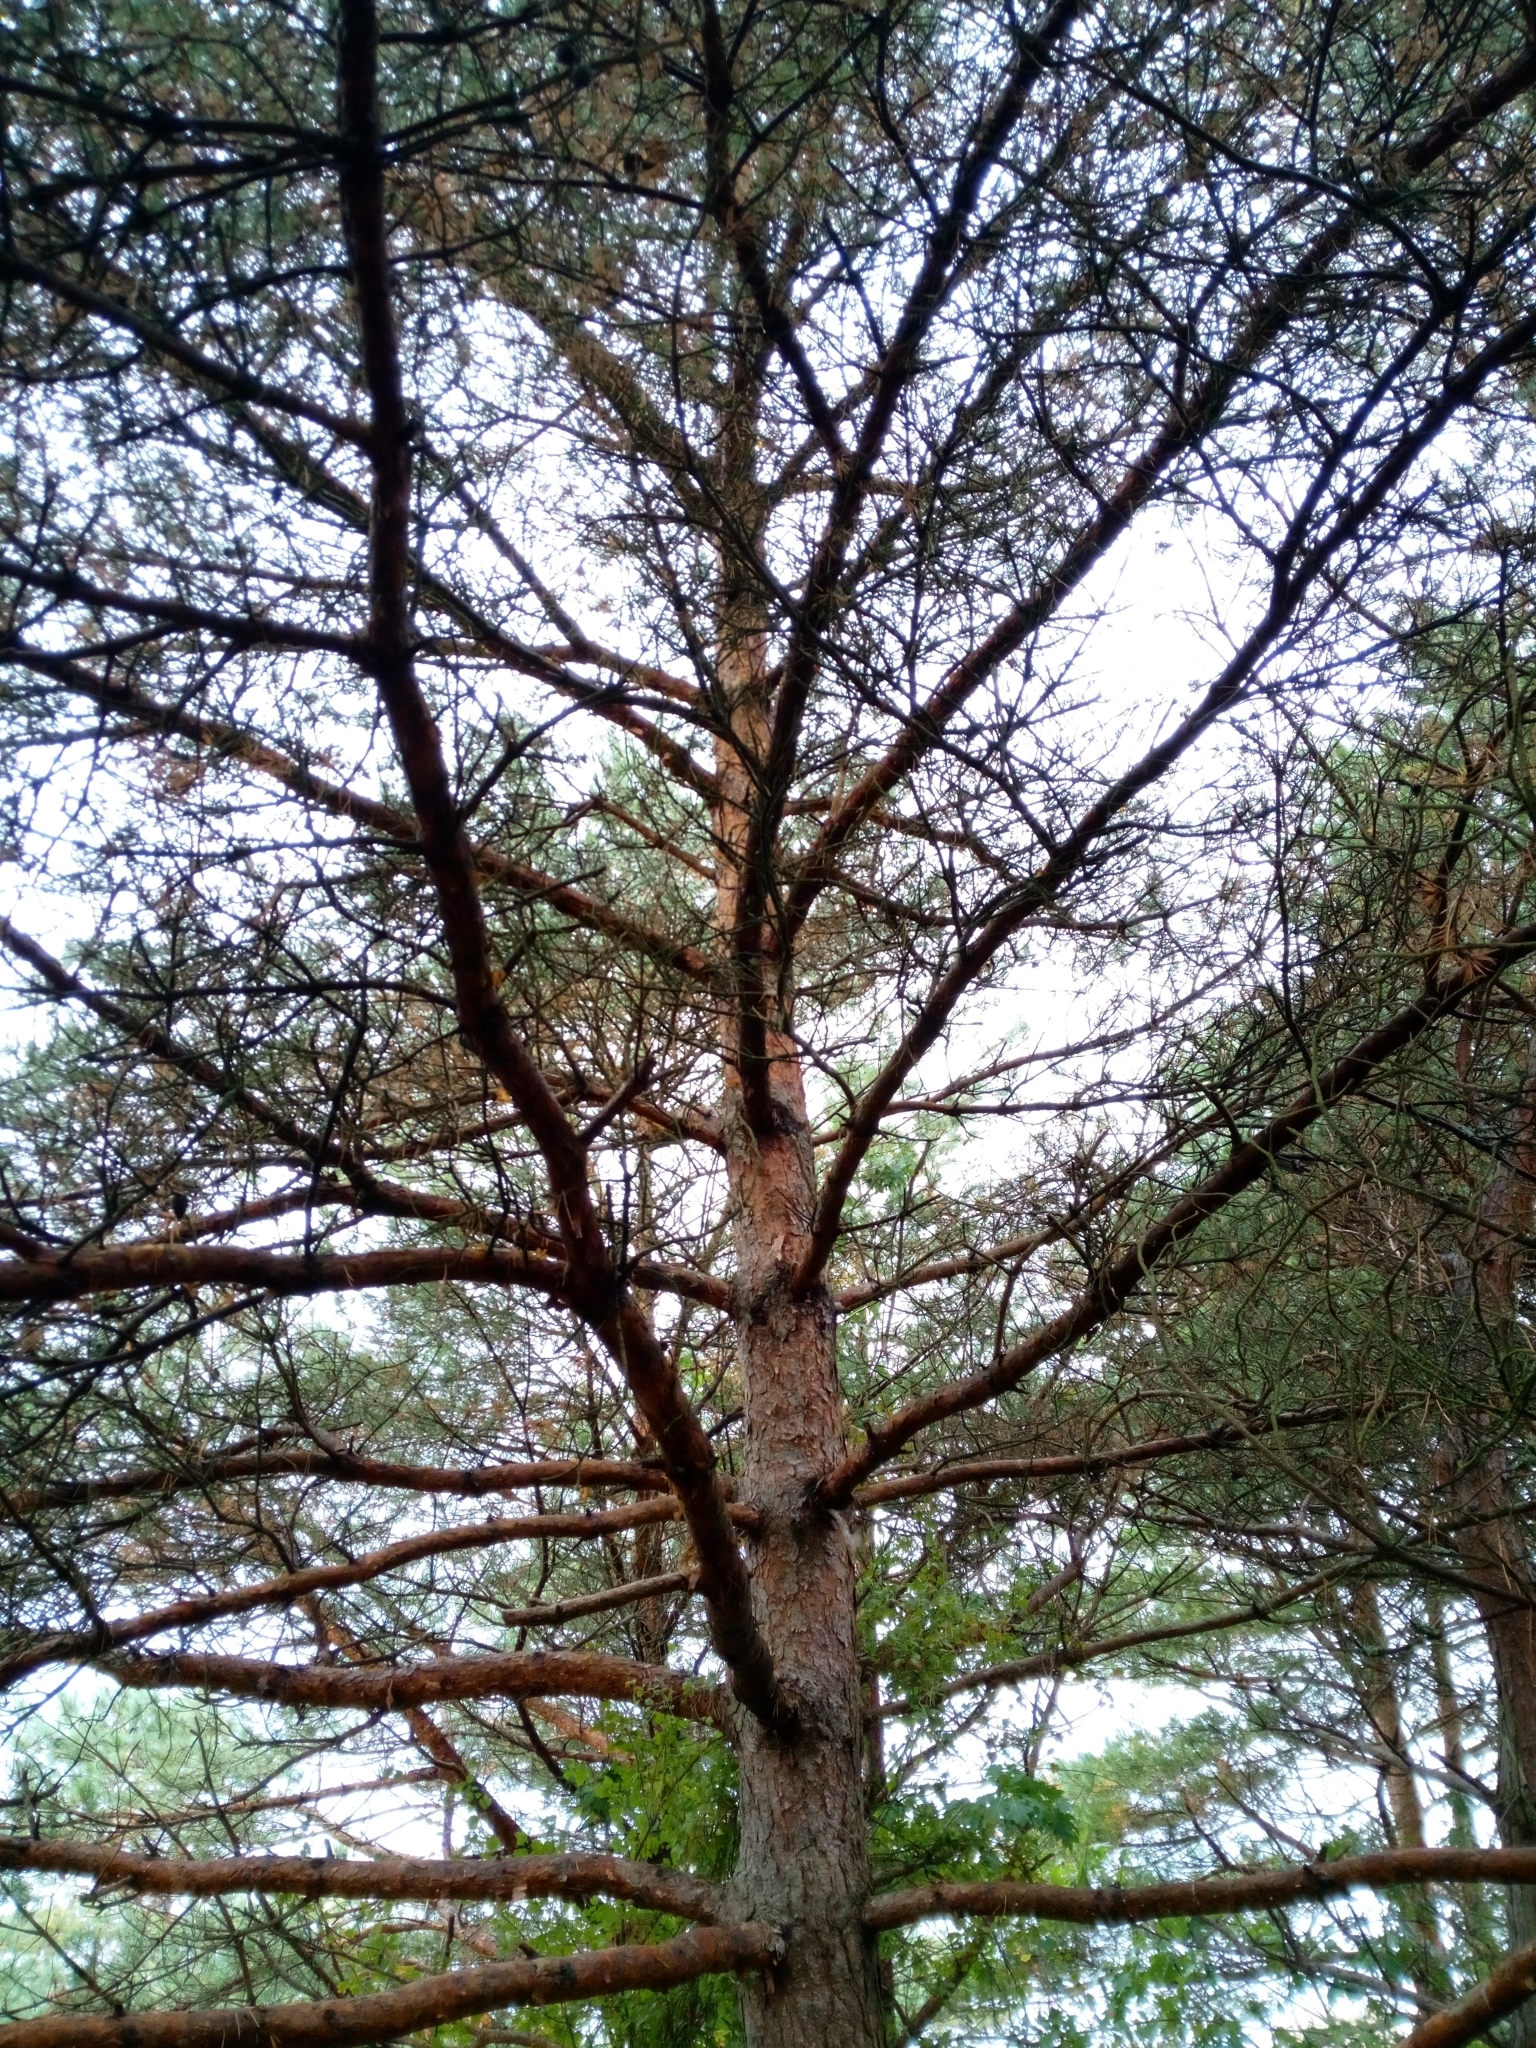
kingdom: Plantae
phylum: Tracheophyta
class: Pinopsida
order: Pinales
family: Pinaceae
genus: Pinus
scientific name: Pinus sylvestris
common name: Scots pine
